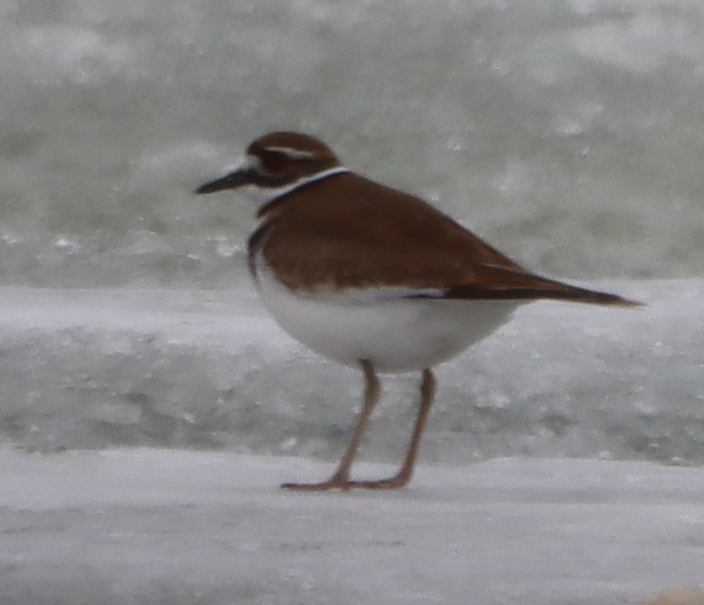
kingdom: Animalia
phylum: Chordata
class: Aves
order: Charadriiformes
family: Charadriidae
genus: Charadrius
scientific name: Charadrius vociferus
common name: Killdeer
